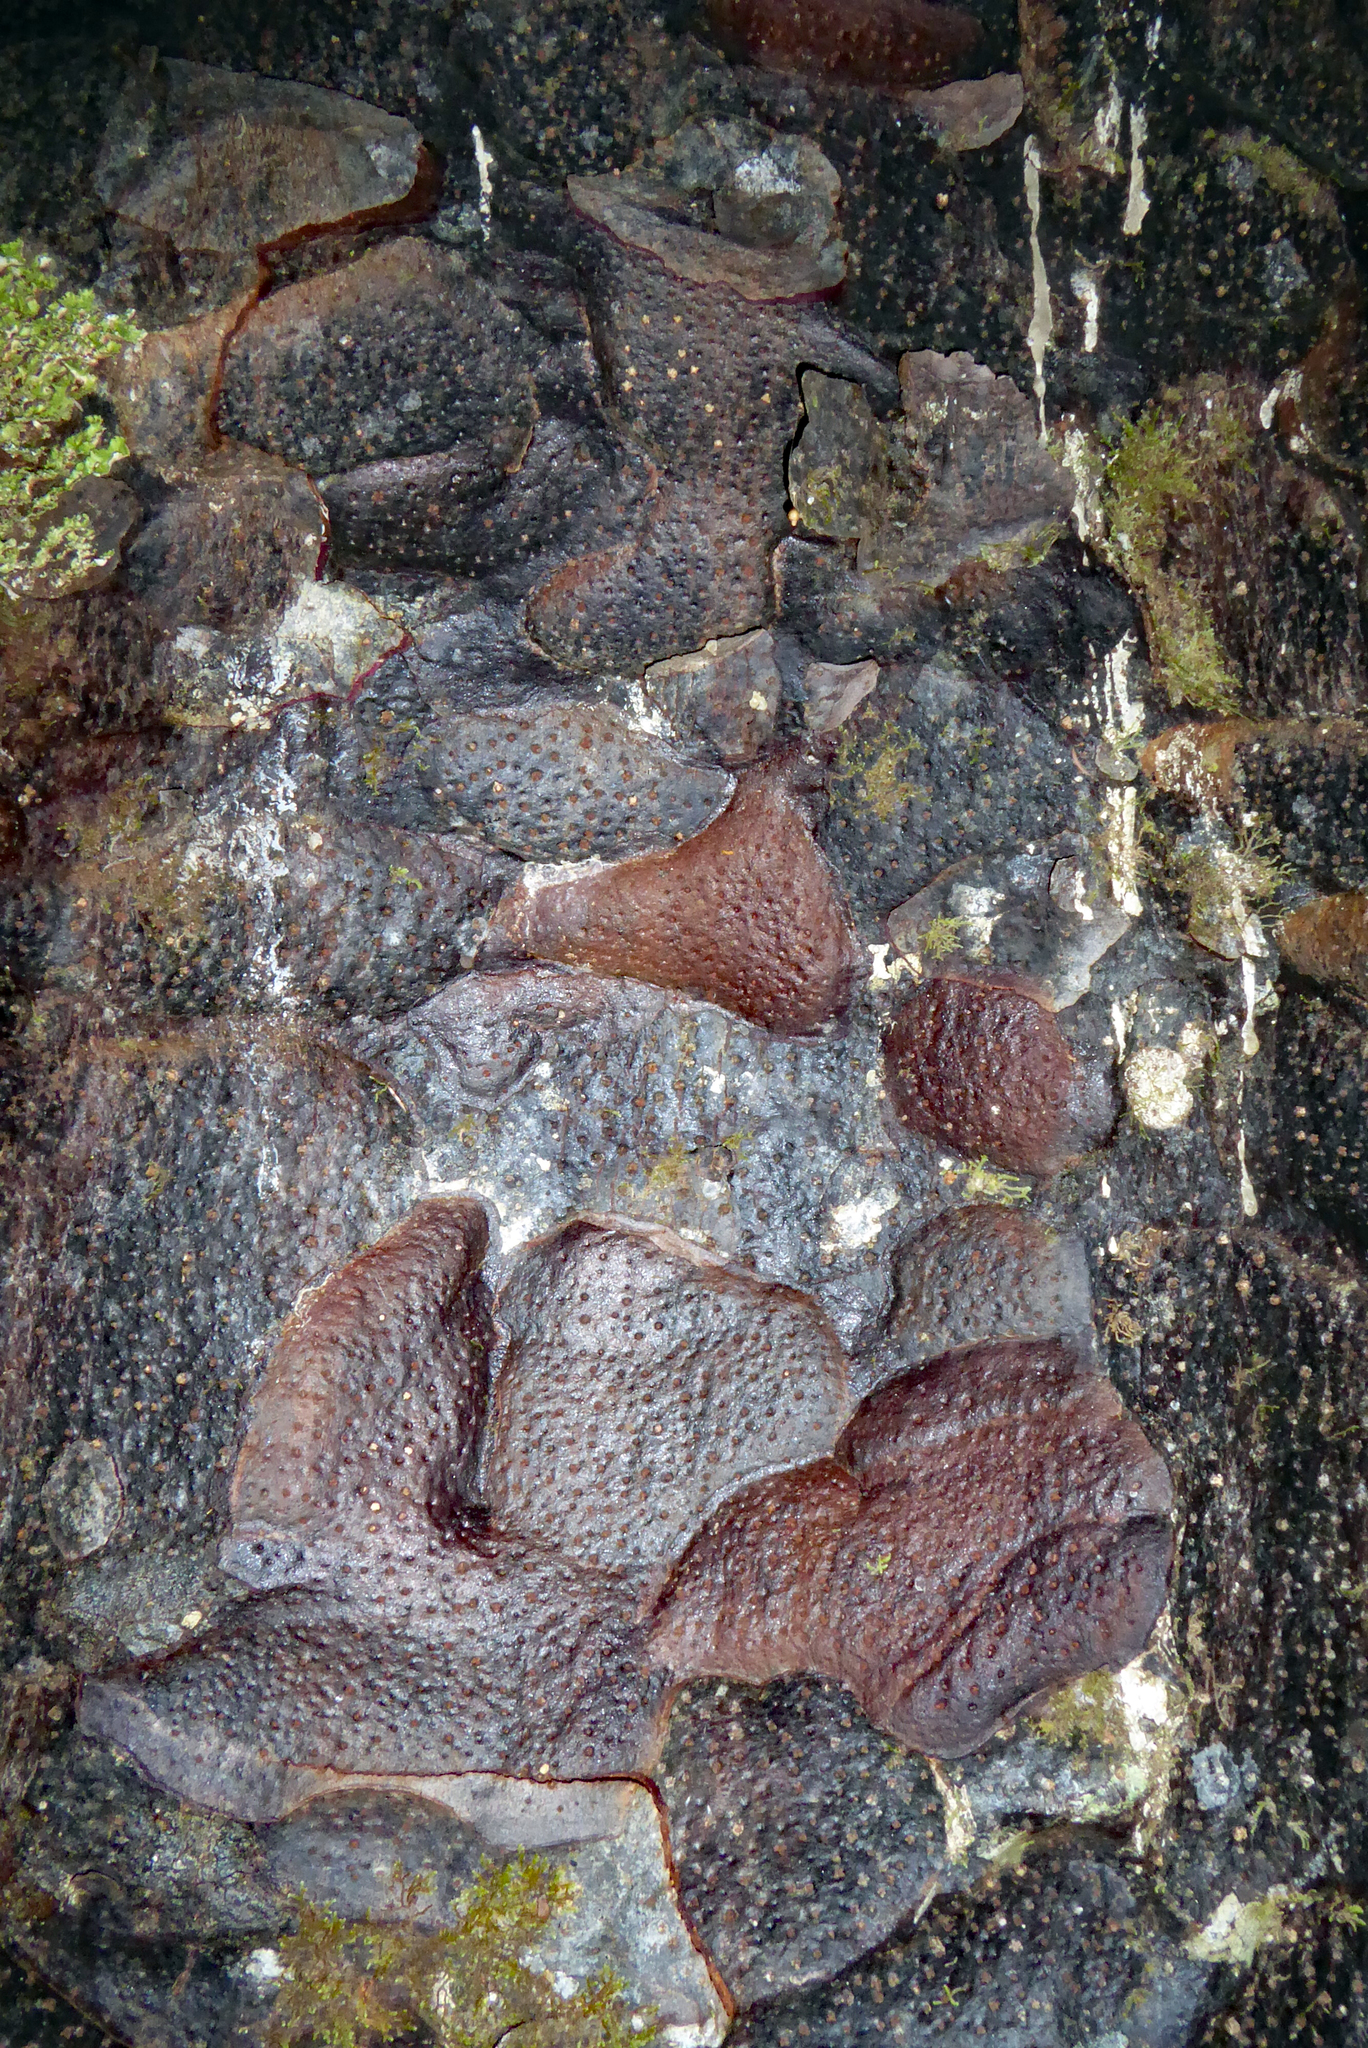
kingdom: Plantae
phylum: Tracheophyta
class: Pinopsida
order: Pinales
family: Araucariaceae
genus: Agathis
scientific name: Agathis australis
